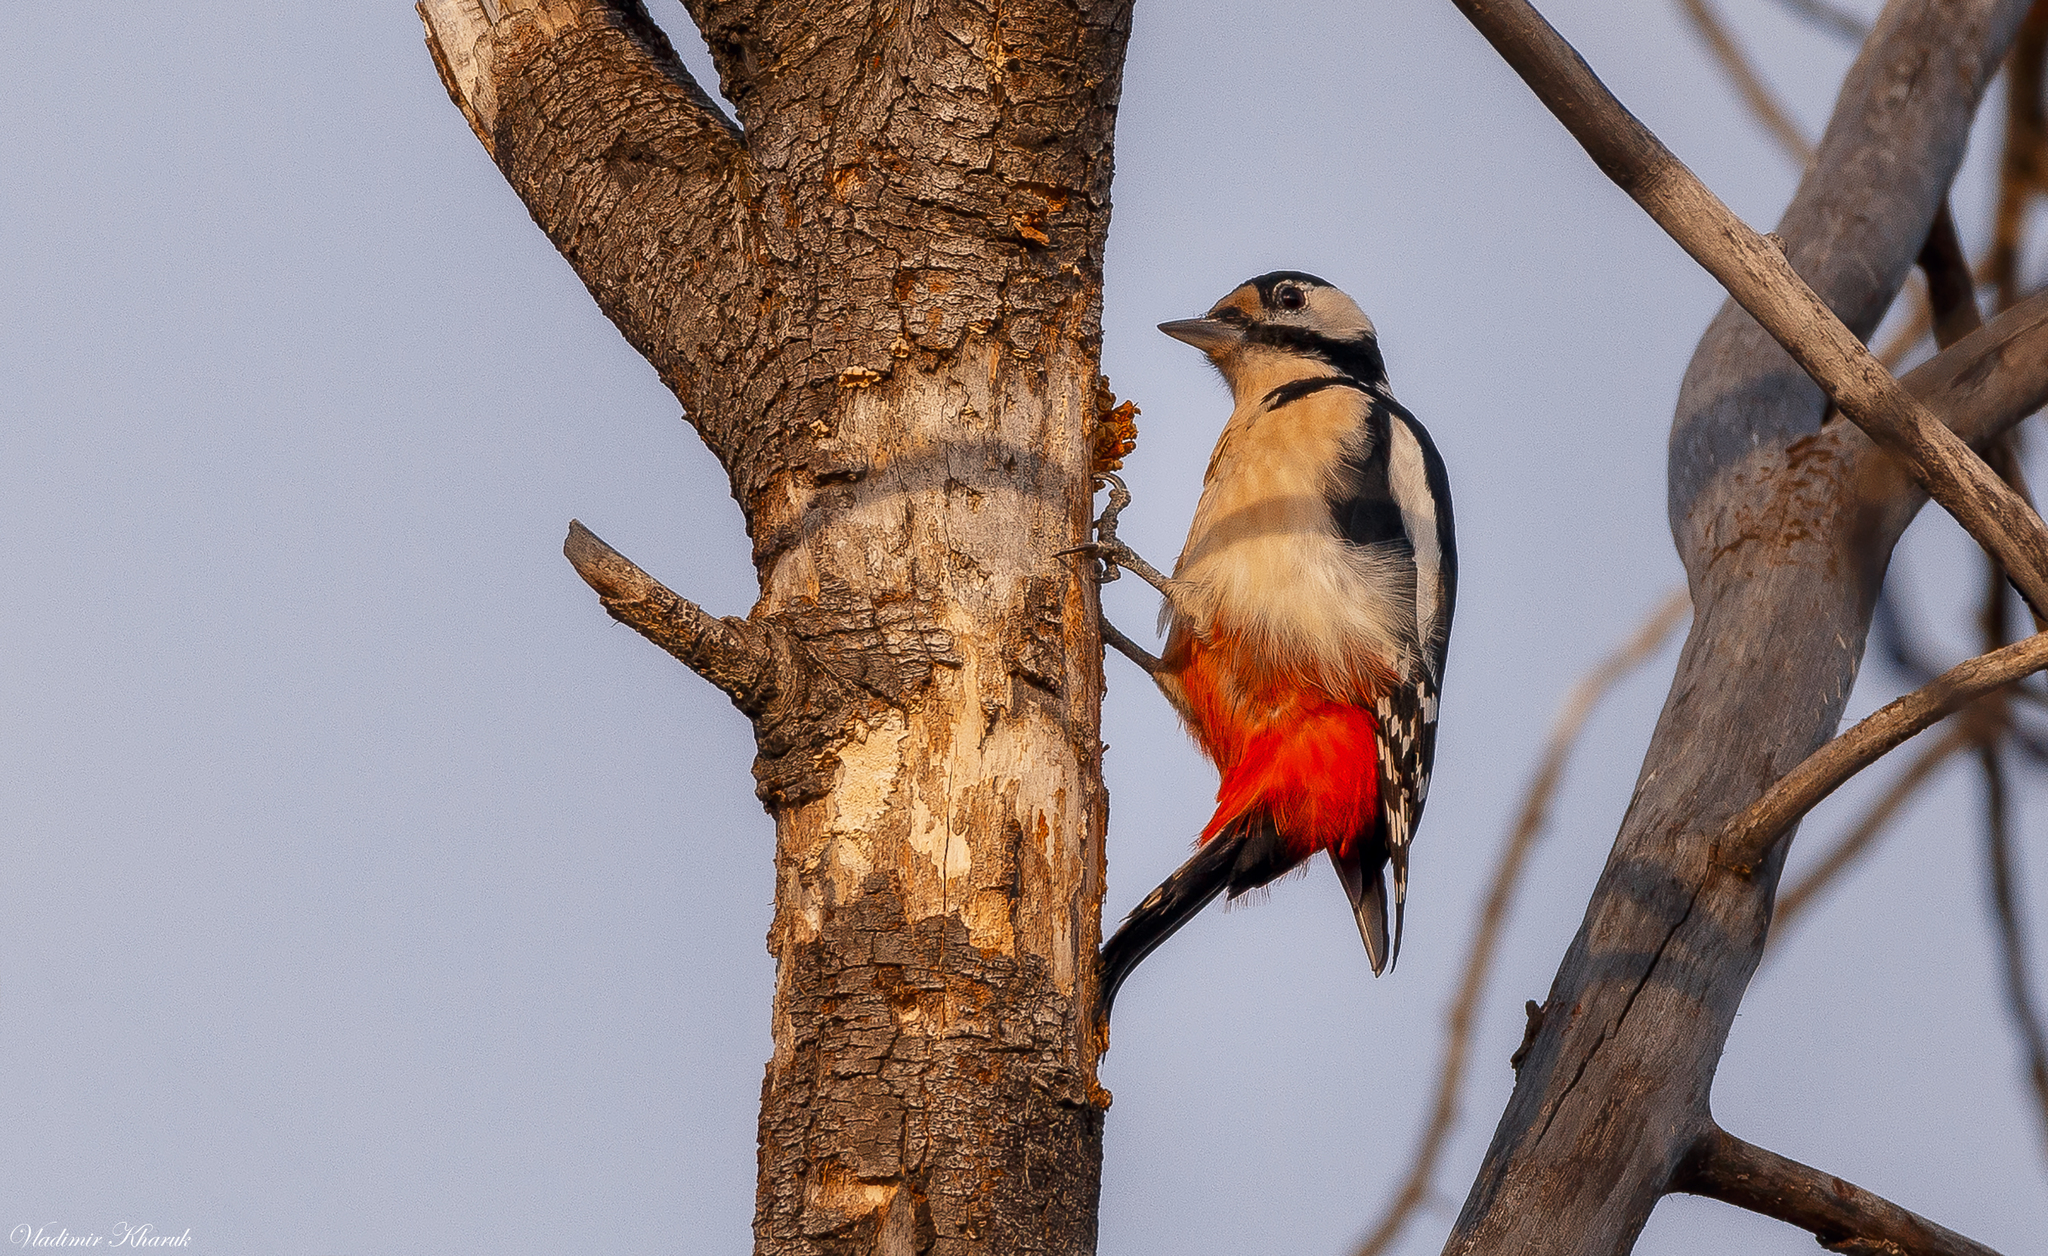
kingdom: Animalia
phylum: Chordata
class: Aves
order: Piciformes
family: Picidae
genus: Dendrocopos
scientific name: Dendrocopos major
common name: Great spotted woodpecker
